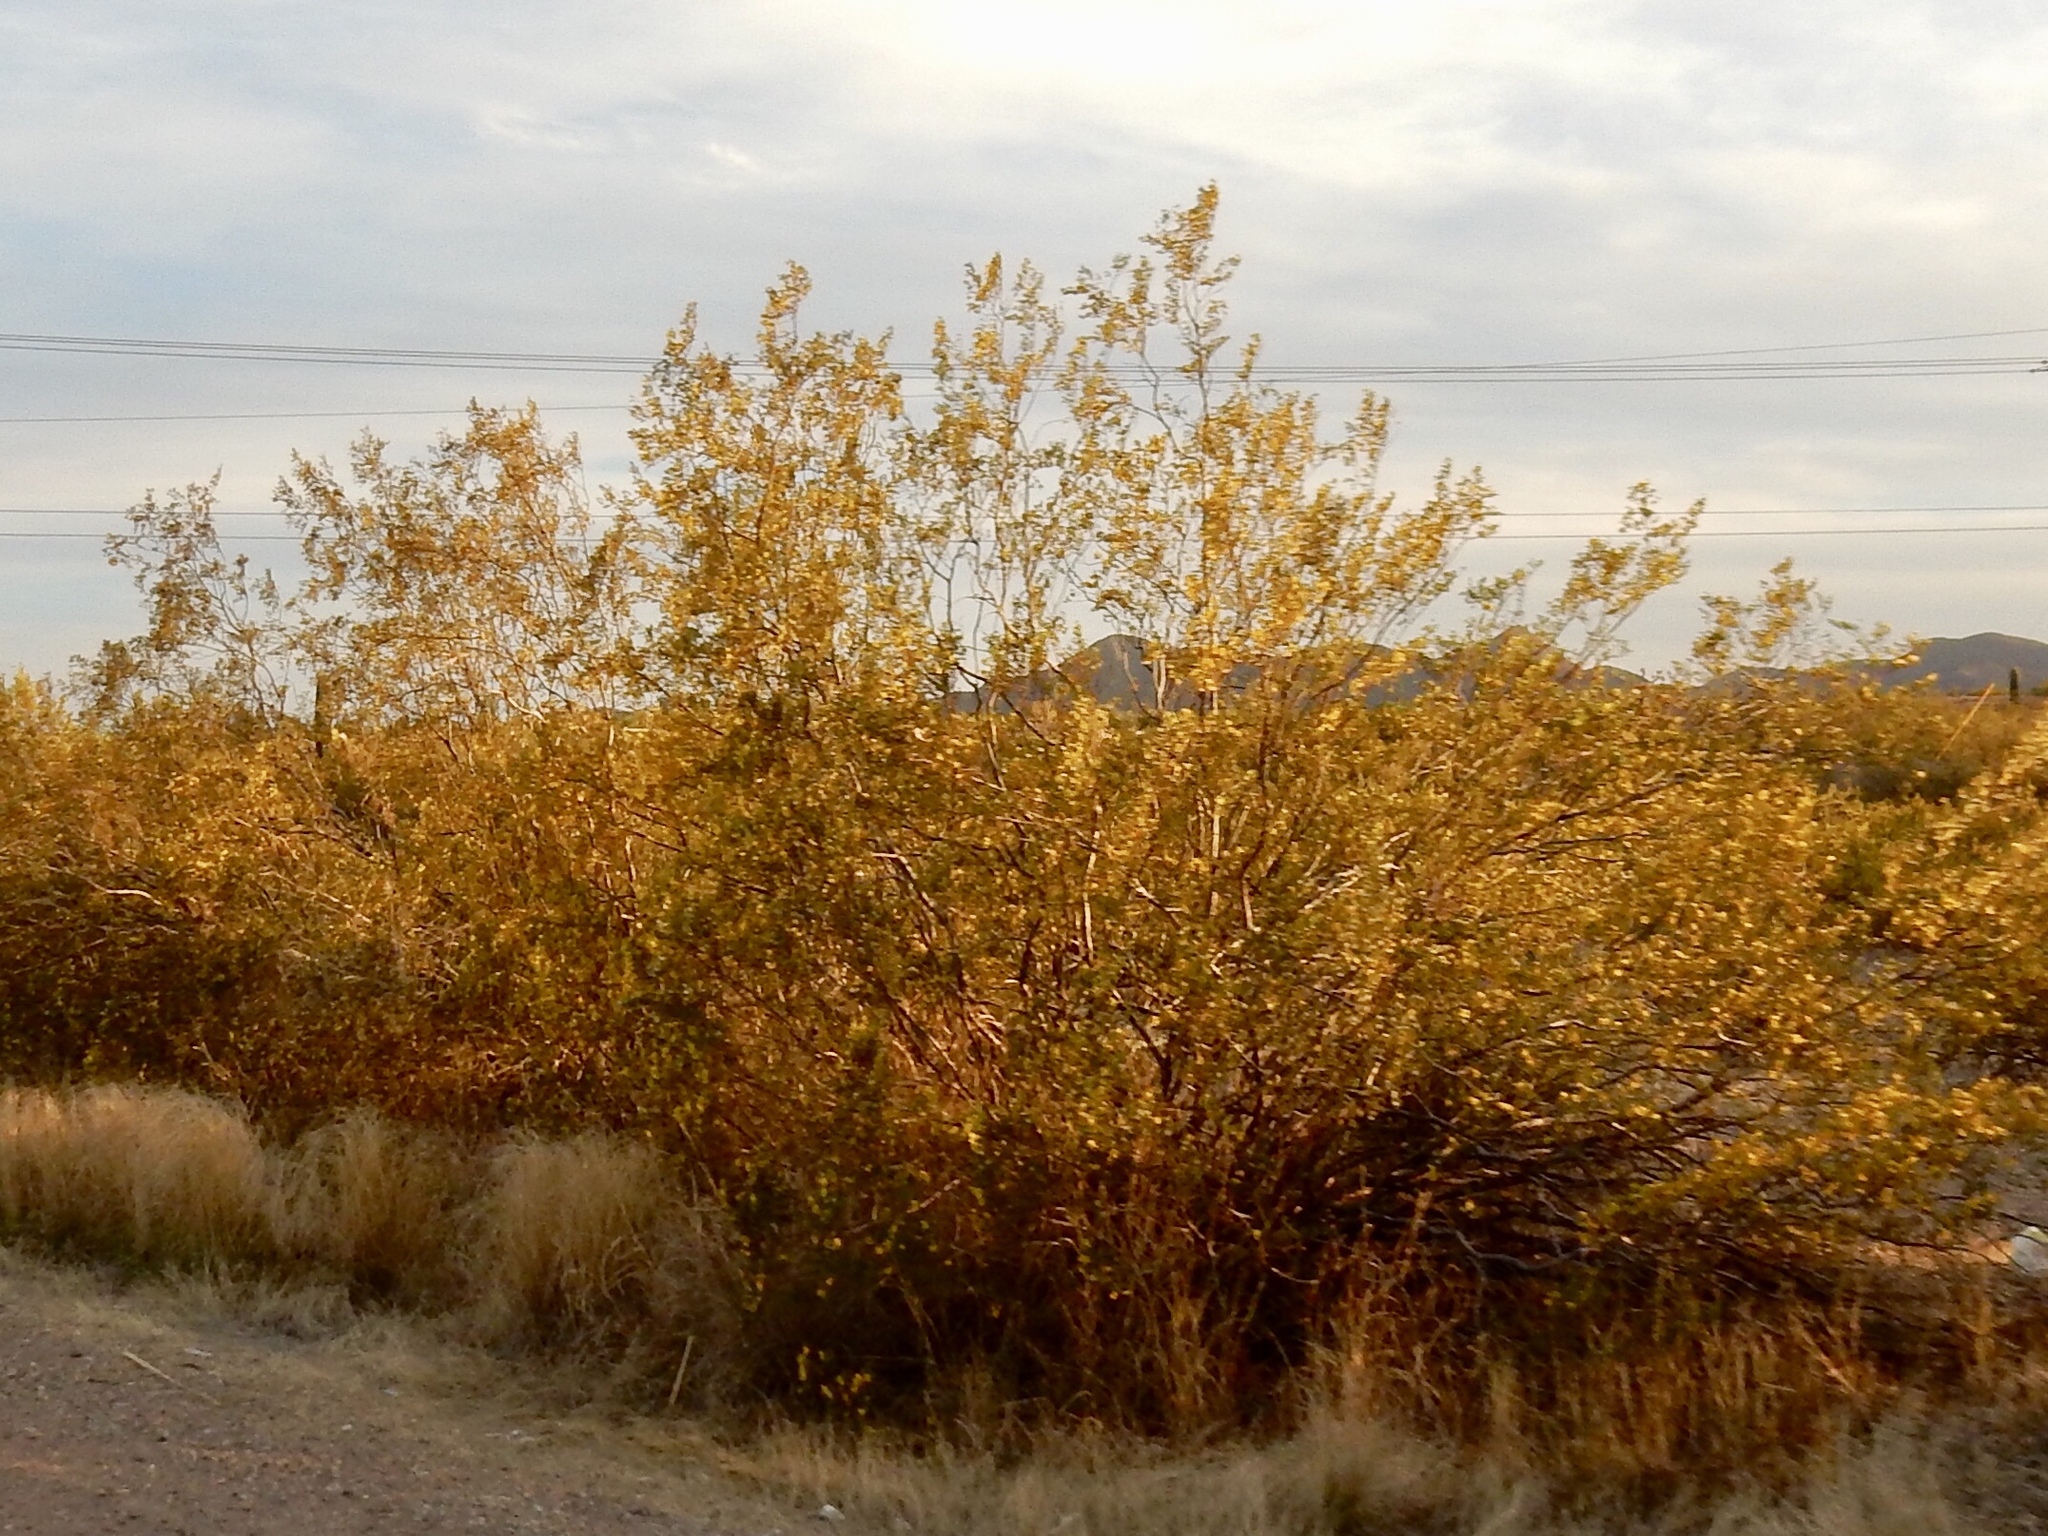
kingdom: Plantae
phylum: Tracheophyta
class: Magnoliopsida
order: Zygophyllales
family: Zygophyllaceae
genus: Larrea
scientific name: Larrea tridentata
